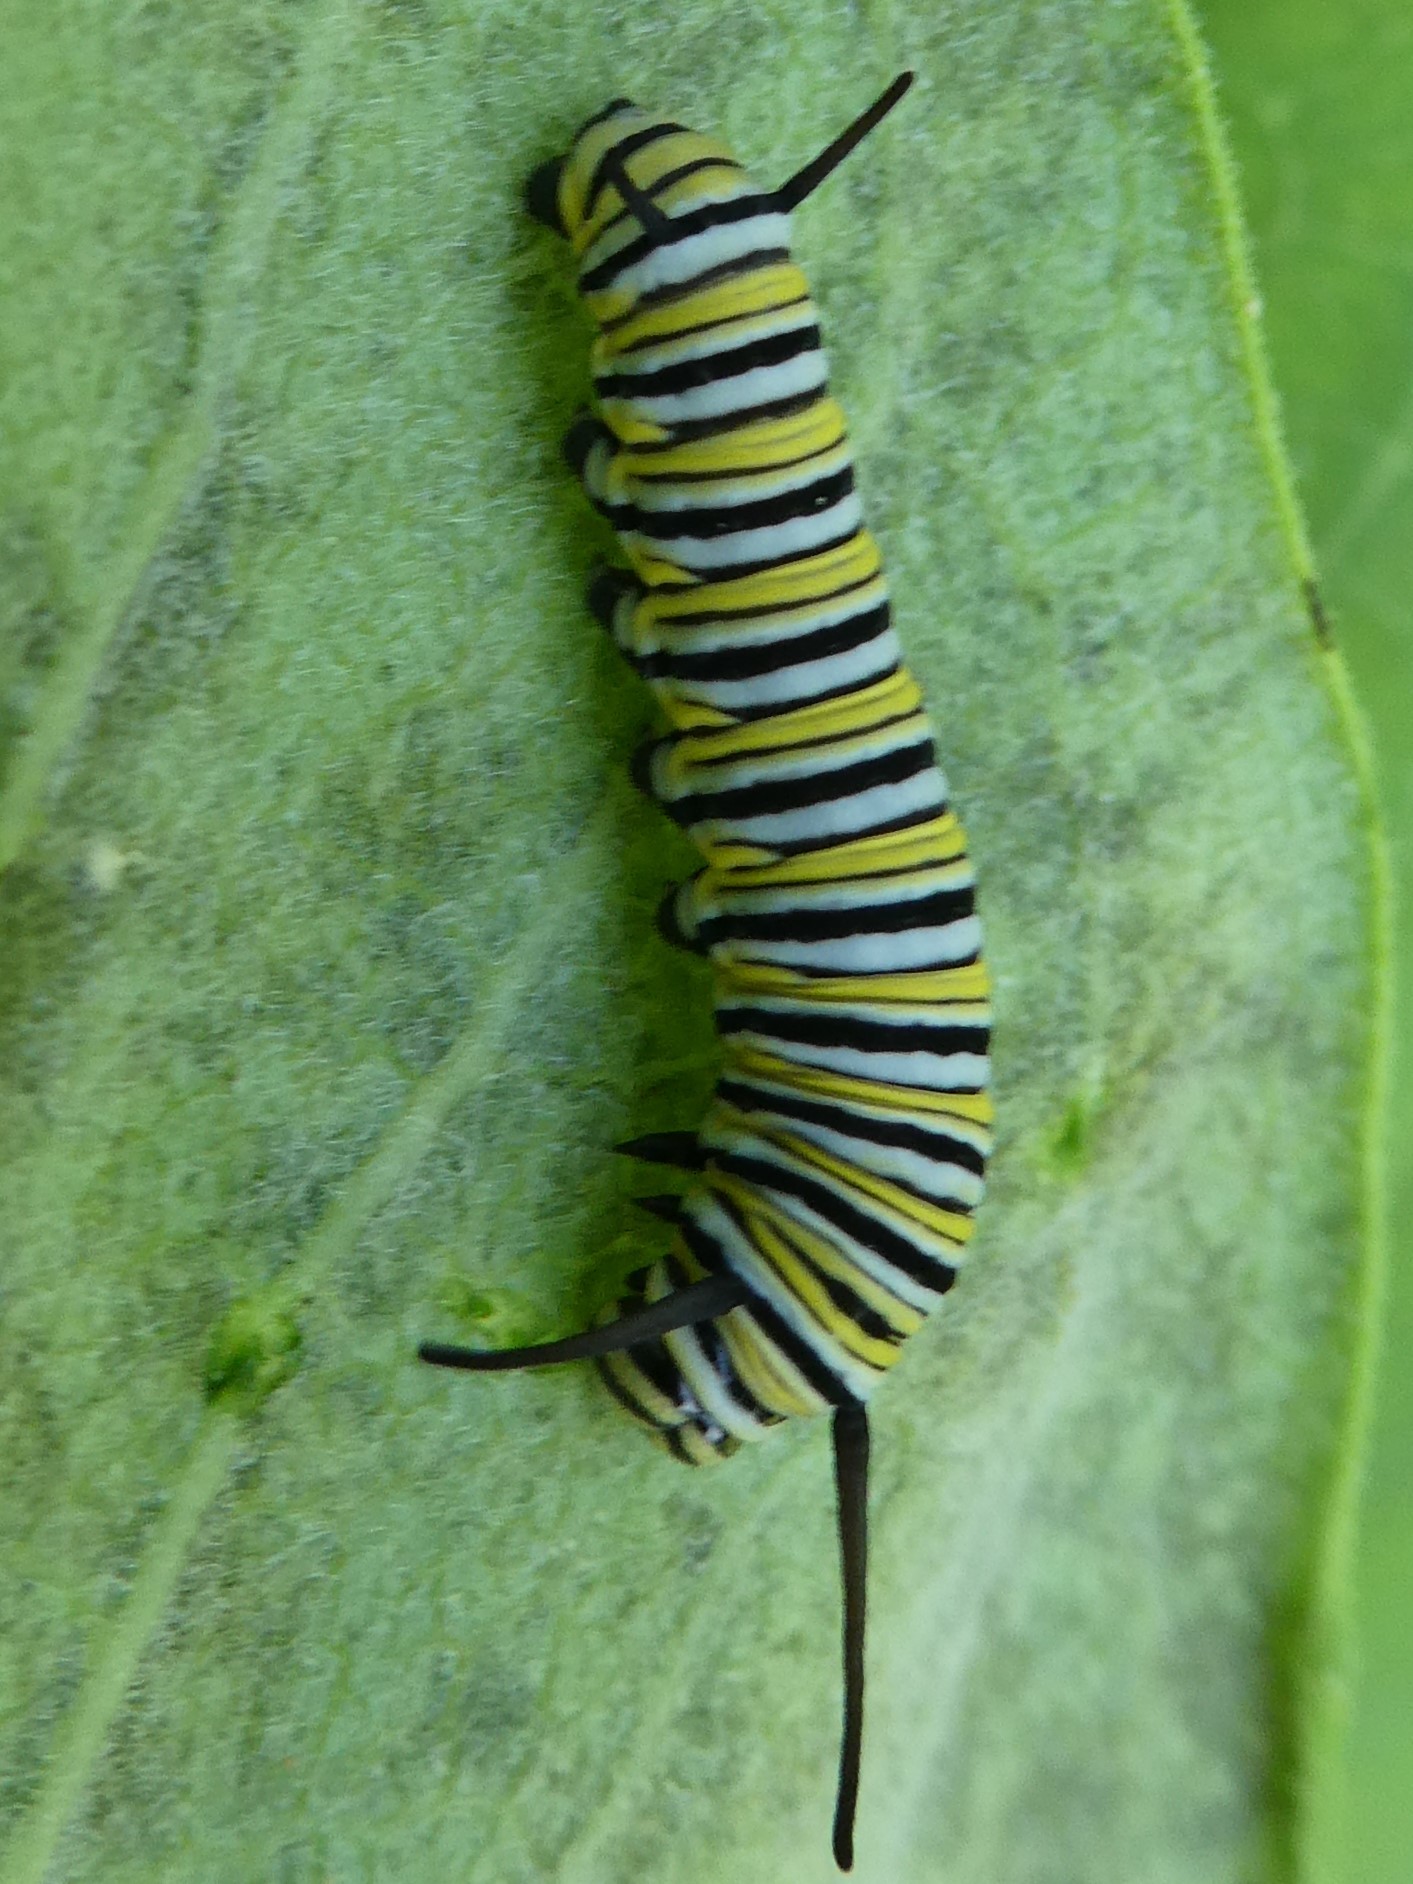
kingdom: Animalia
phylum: Arthropoda
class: Insecta
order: Lepidoptera
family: Nymphalidae
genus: Danaus
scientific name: Danaus plexippus
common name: Monarch
